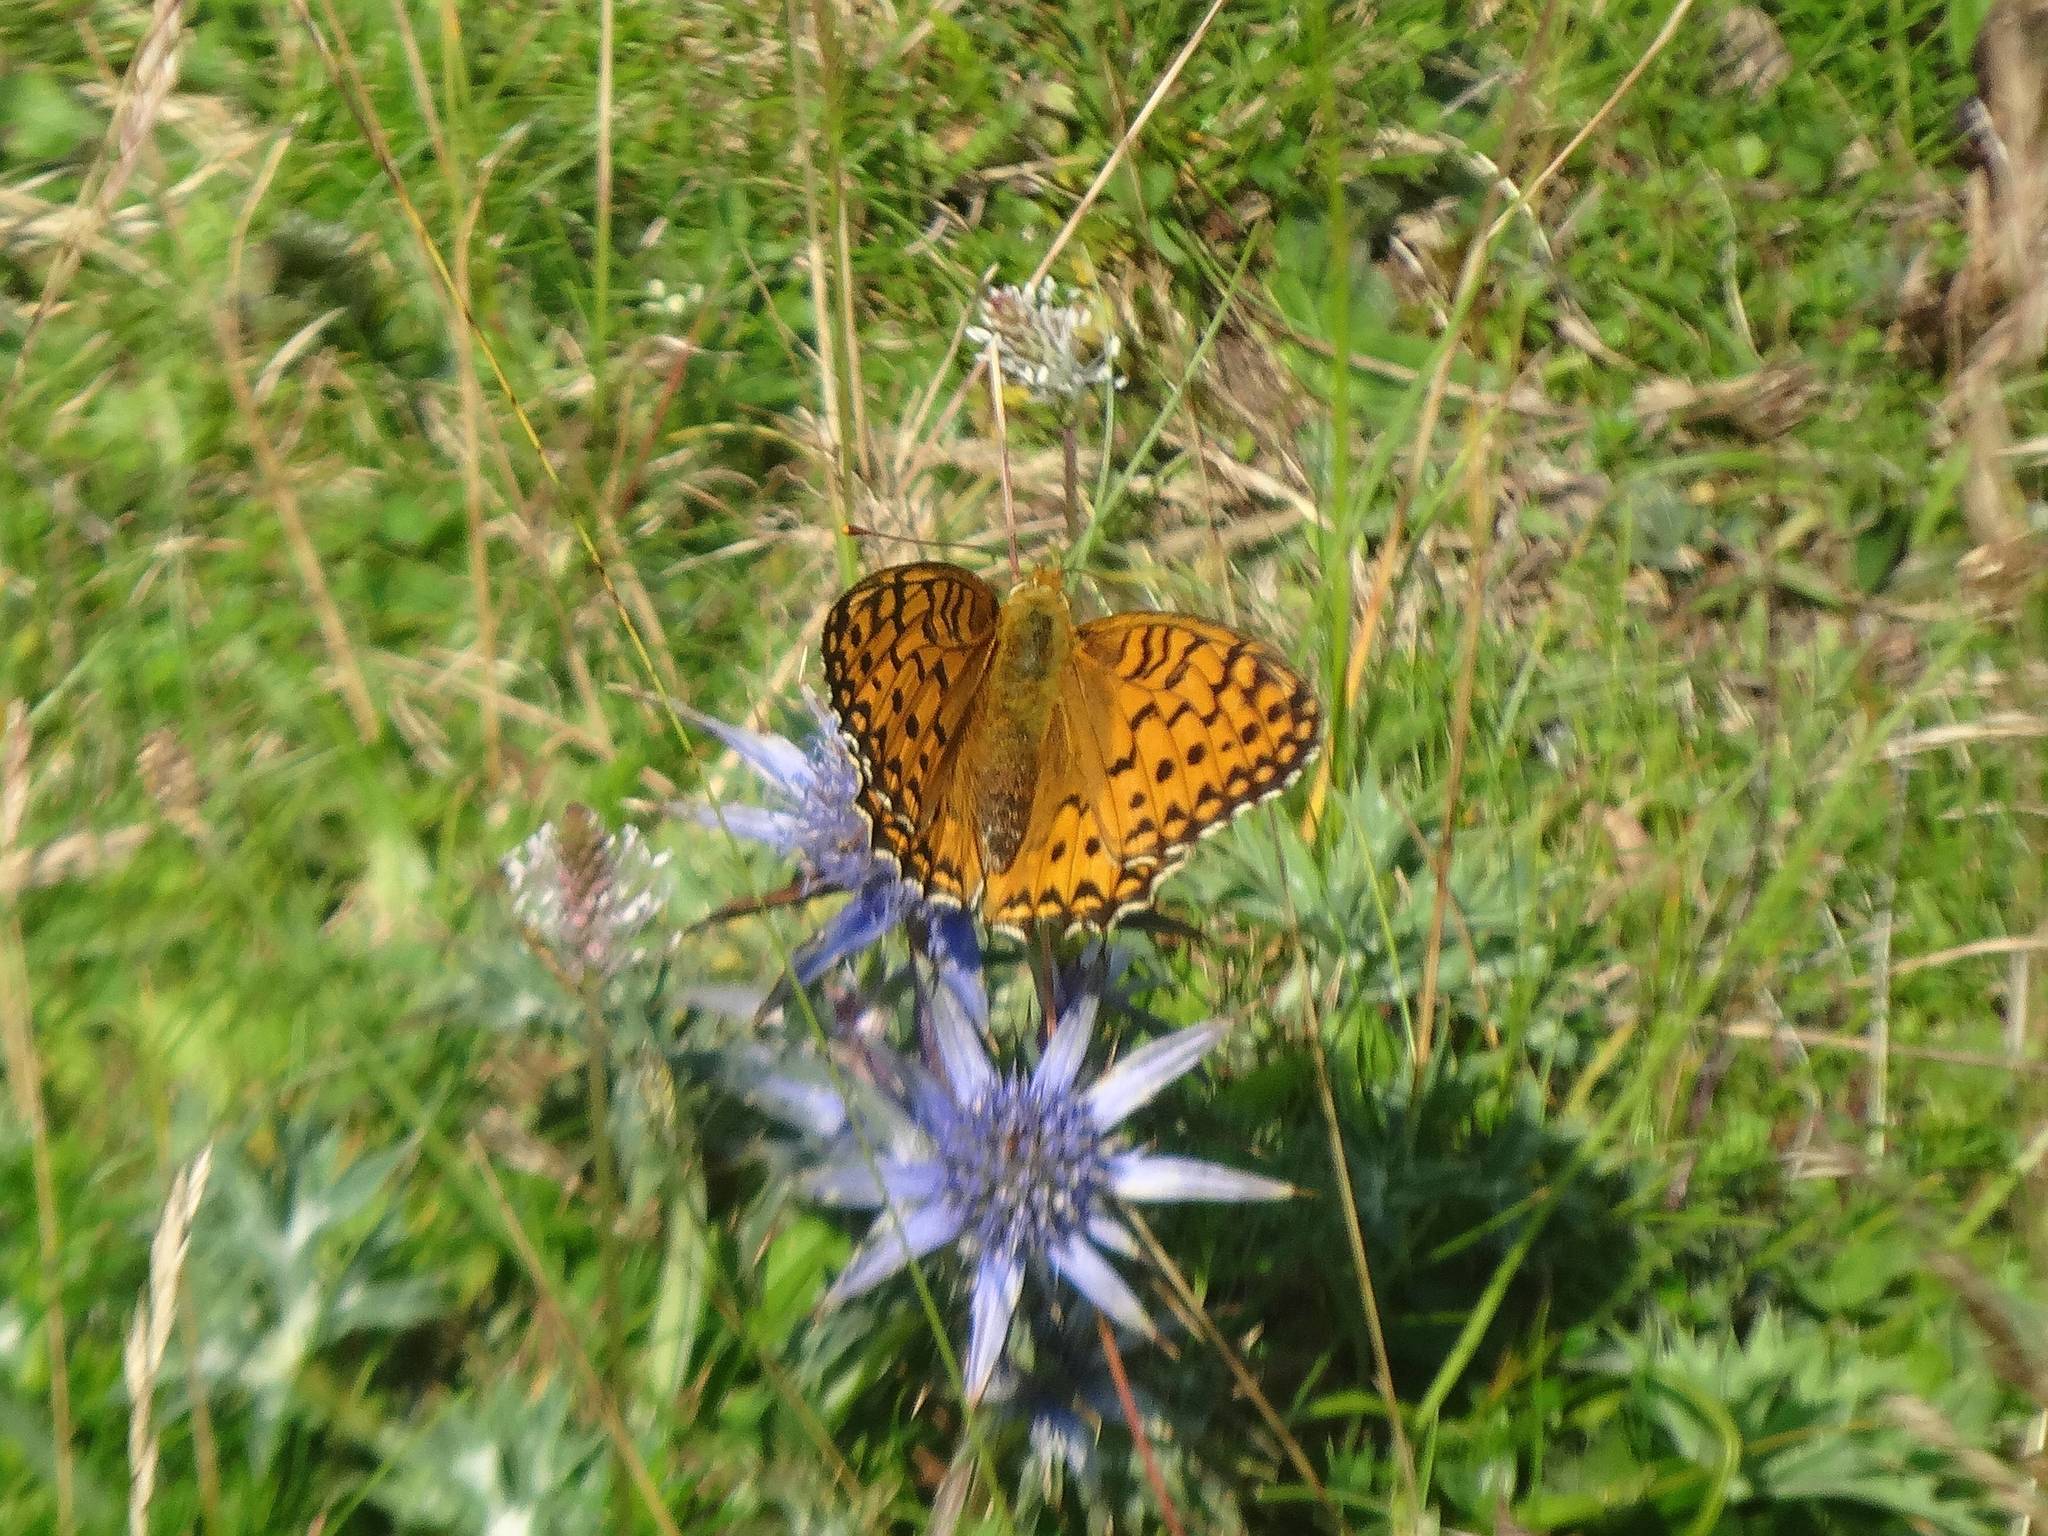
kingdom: Animalia
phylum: Arthropoda
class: Insecta
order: Lepidoptera
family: Nymphalidae
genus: Speyeria
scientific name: Speyeria aglaja
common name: Dark green fritillary
